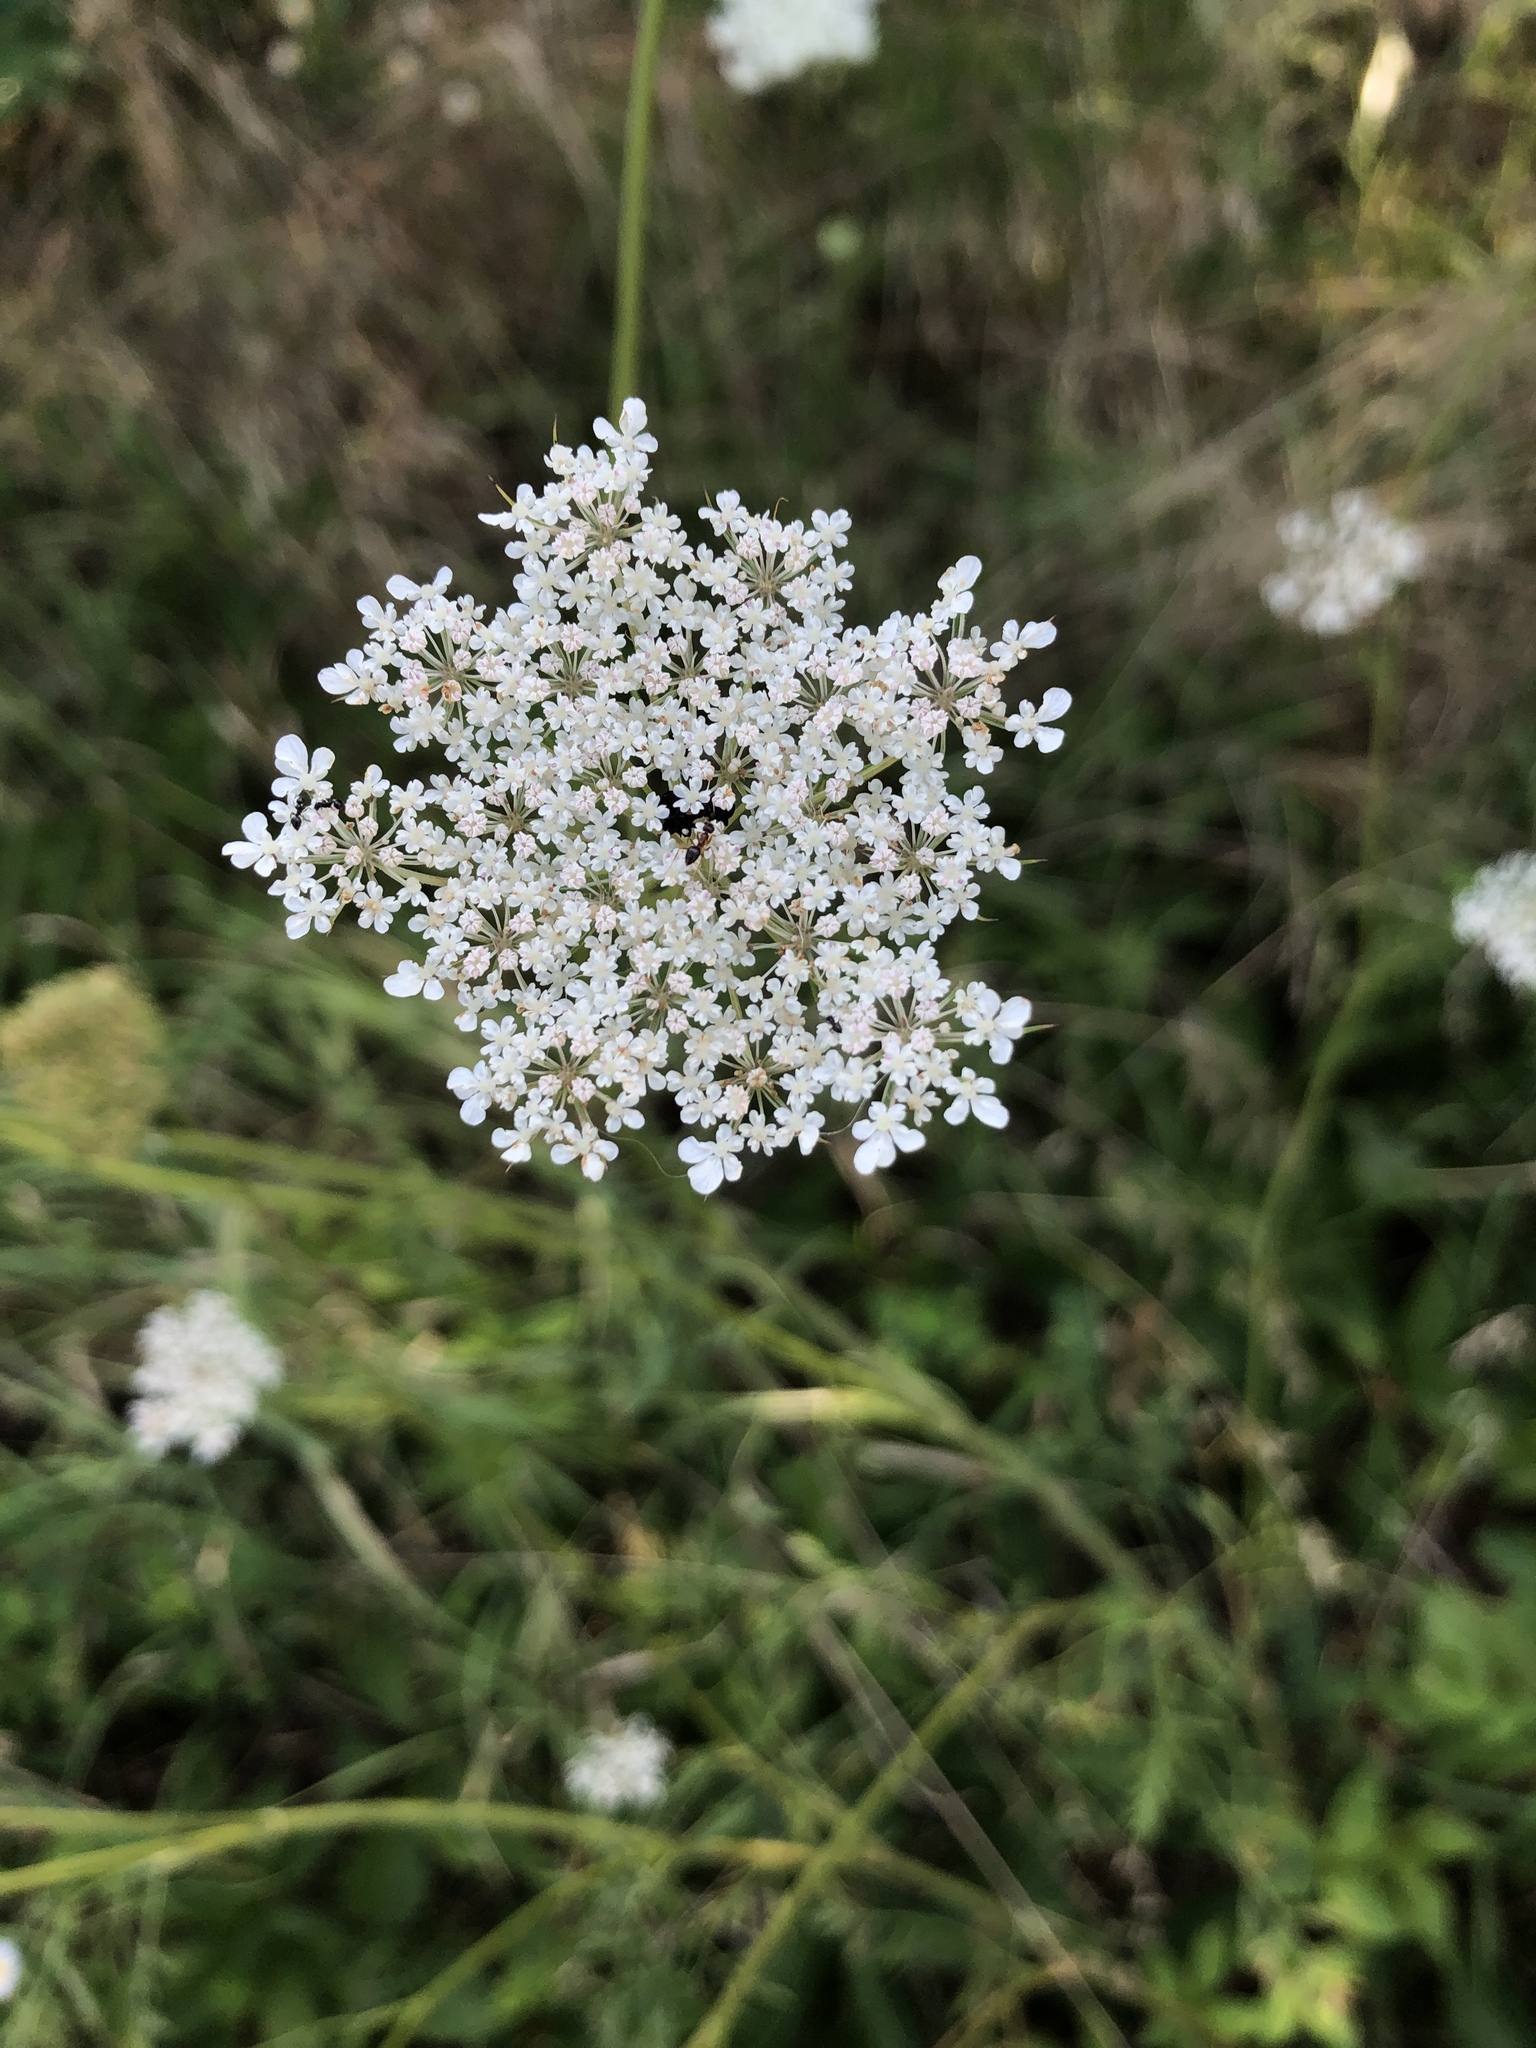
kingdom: Plantae
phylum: Tracheophyta
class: Magnoliopsida
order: Apiales
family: Apiaceae
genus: Daucus
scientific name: Daucus carota
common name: Wild carrot
